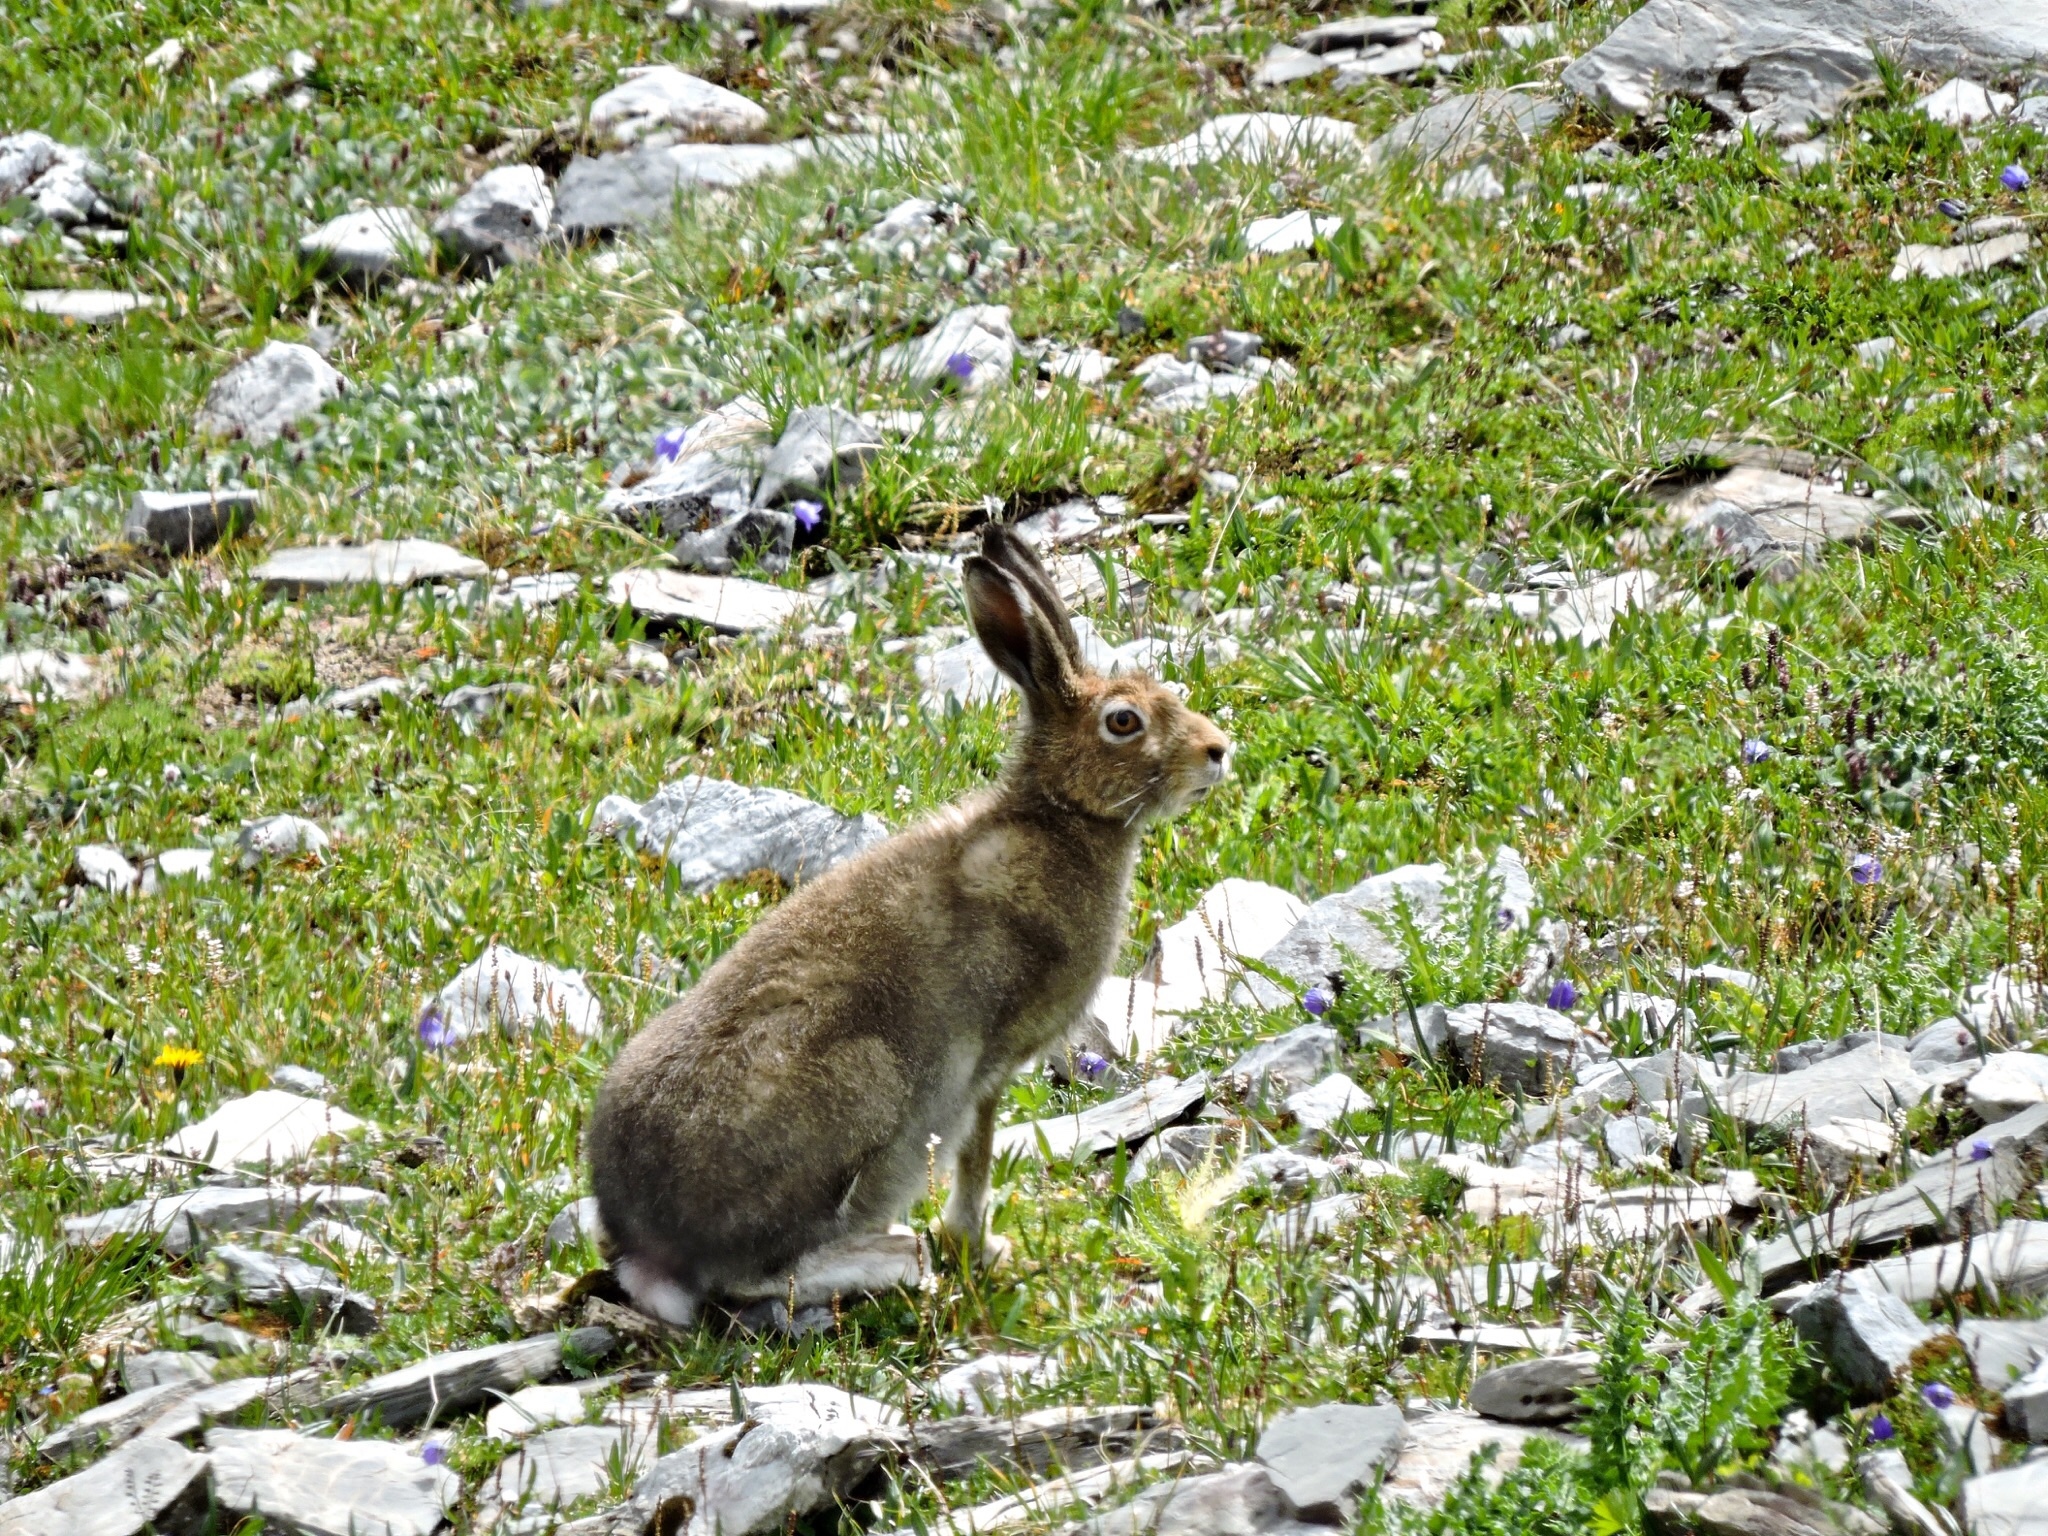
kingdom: Animalia
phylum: Chordata
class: Mammalia
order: Lagomorpha
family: Leporidae
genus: Lepus
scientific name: Lepus timidus
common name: Mountain hare
